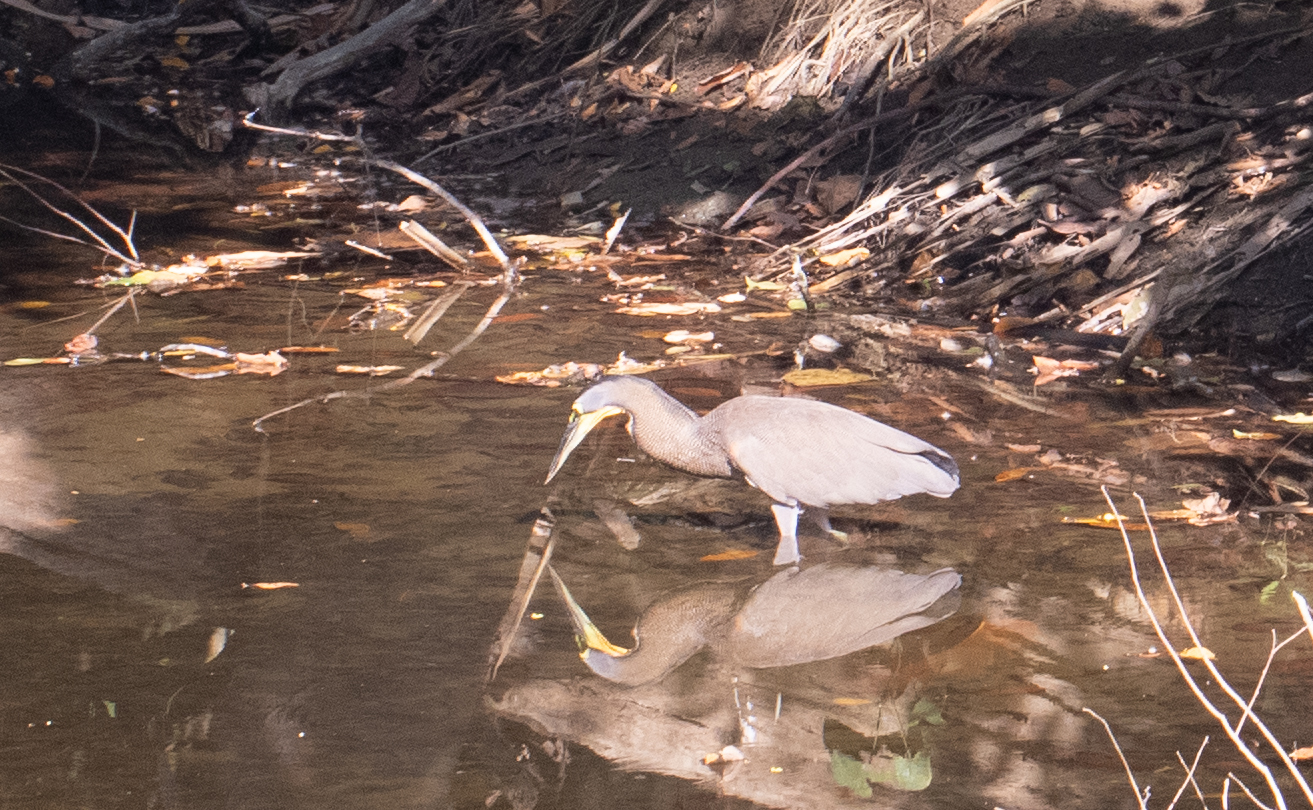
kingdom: Animalia
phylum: Chordata
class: Aves
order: Pelecaniformes
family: Ardeidae
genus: Tigrisoma
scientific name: Tigrisoma mexicanum
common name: Bare-throated tiger-heron
